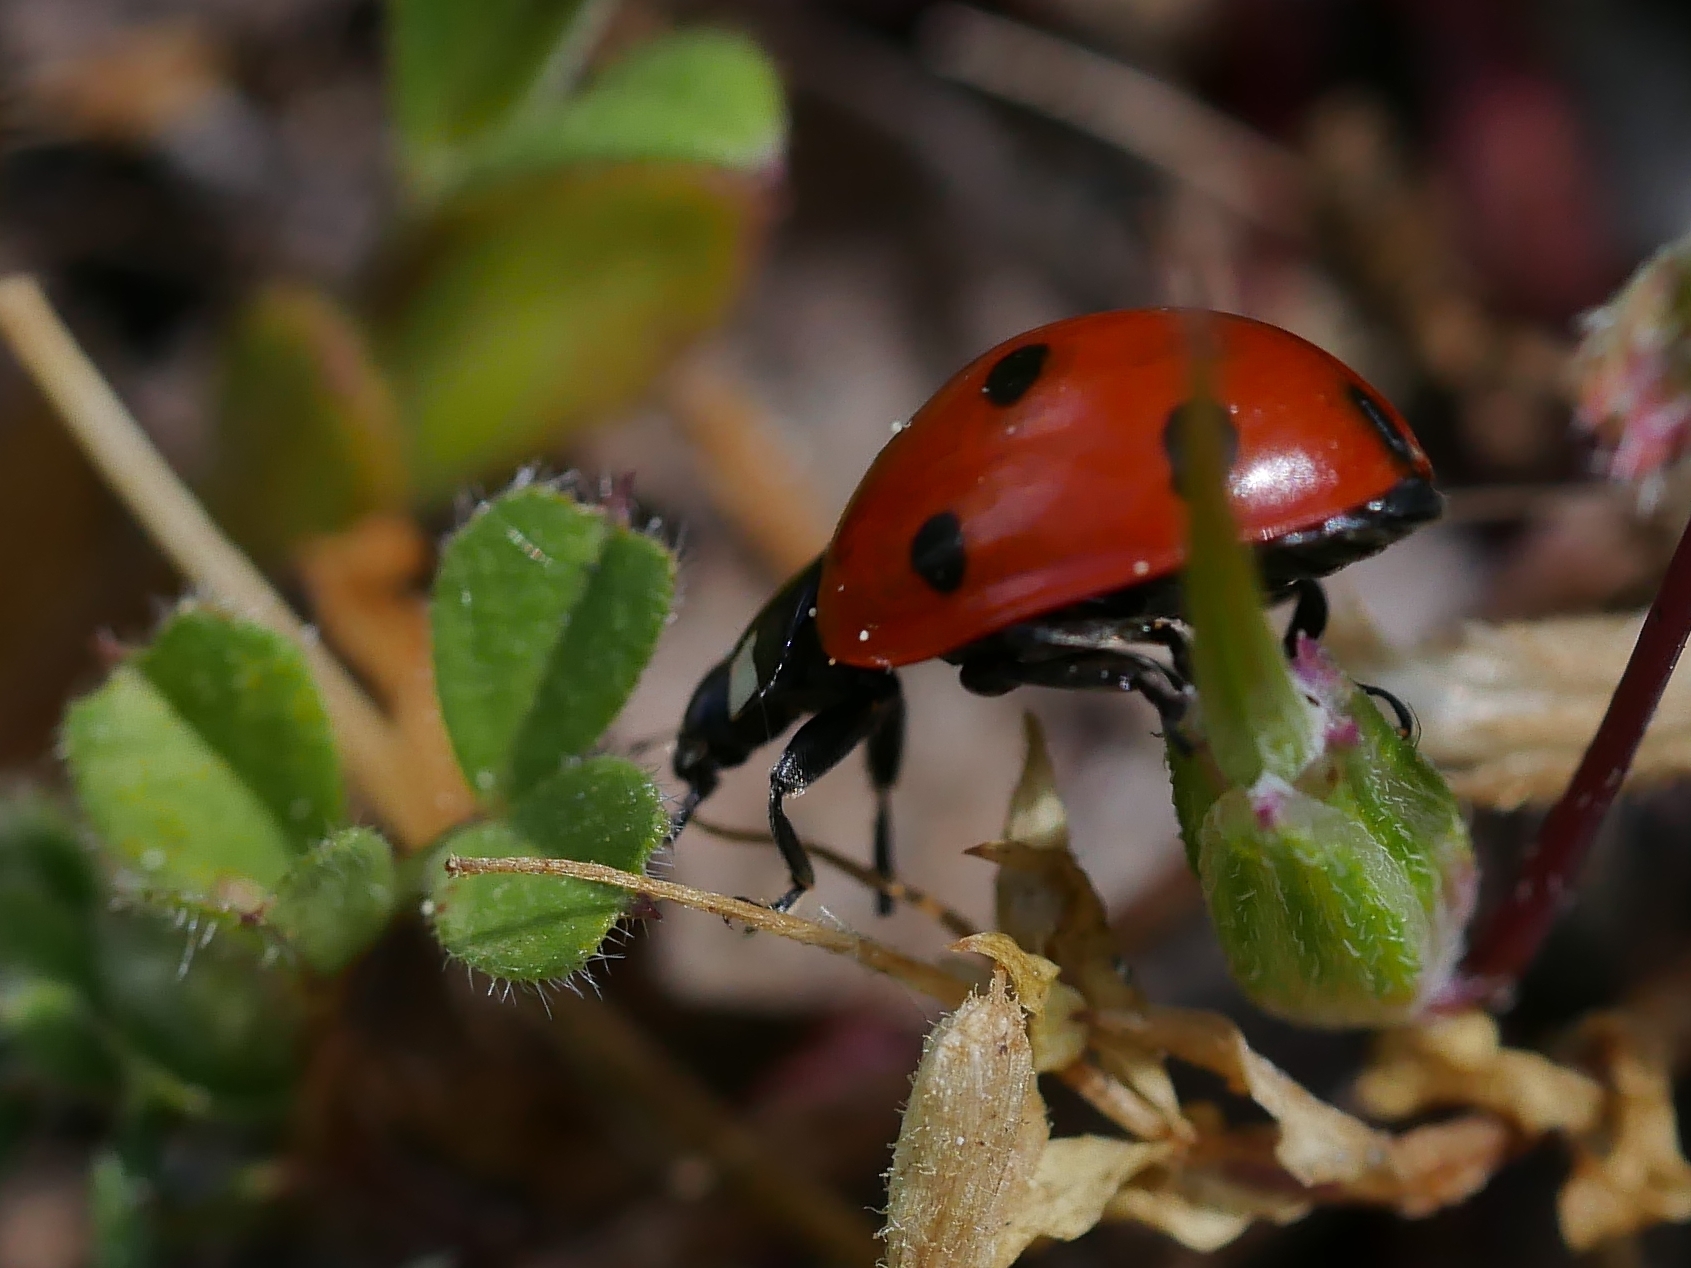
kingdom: Animalia
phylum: Arthropoda
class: Insecta
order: Coleoptera
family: Coccinellidae
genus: Coccinella
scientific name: Coccinella septempunctata
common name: Sevenspotted lady beetle
